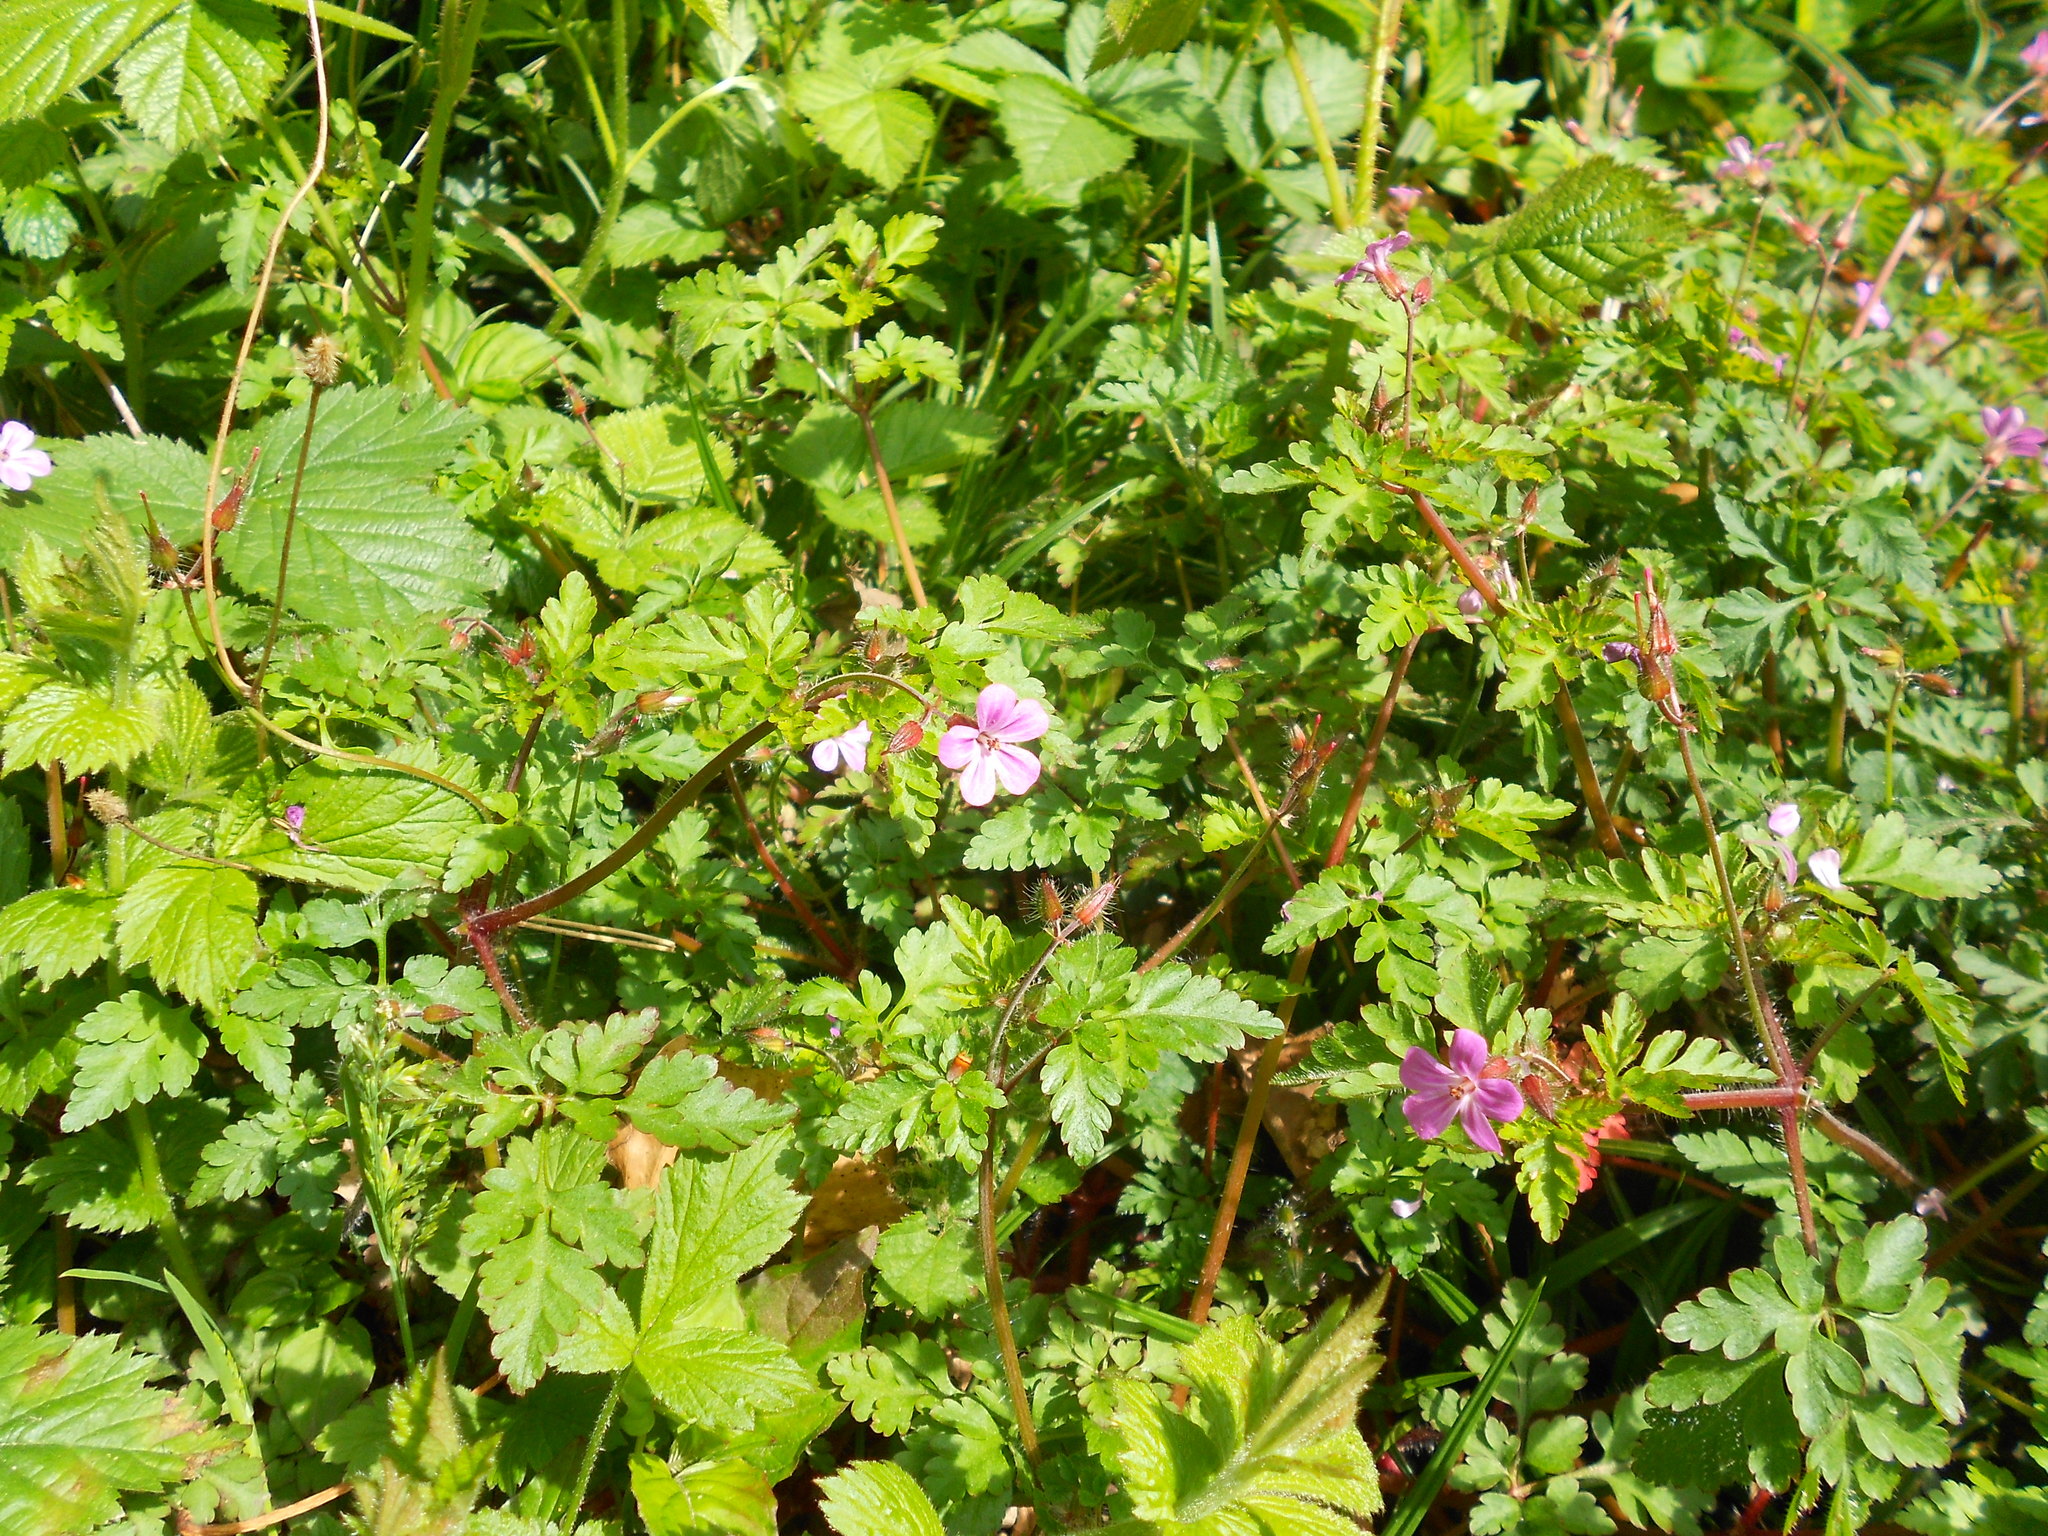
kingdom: Plantae
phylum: Tracheophyta
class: Magnoliopsida
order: Geraniales
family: Geraniaceae
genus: Geranium
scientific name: Geranium robertianum
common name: Herb-robert
